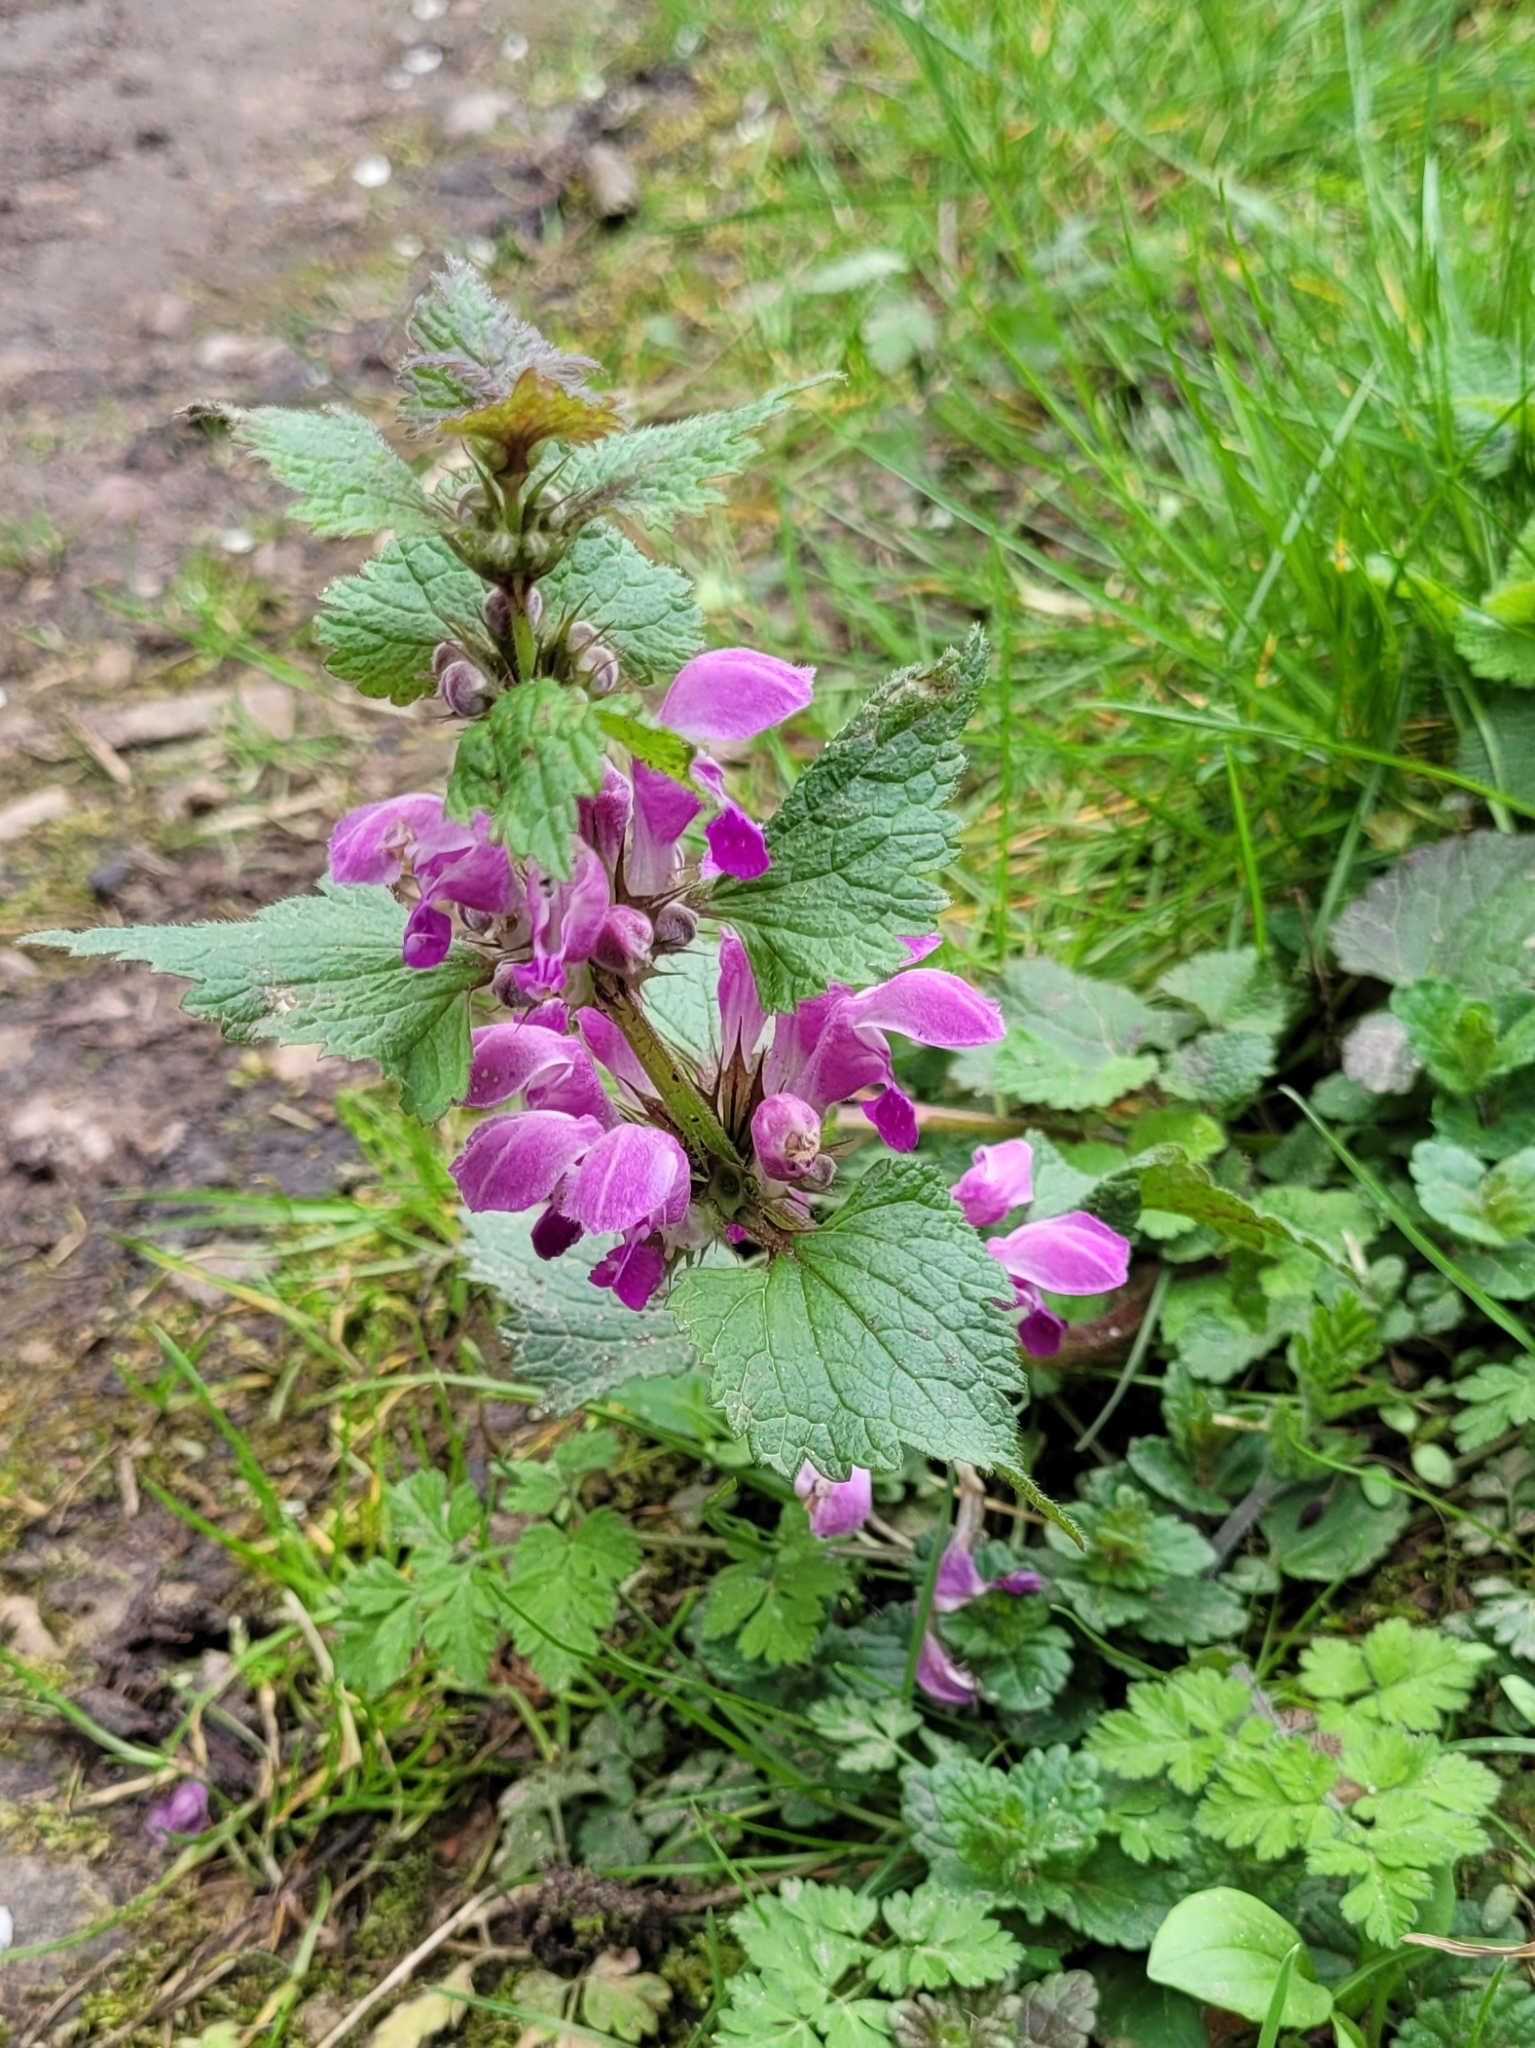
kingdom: Plantae
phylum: Tracheophyta
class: Magnoliopsida
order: Lamiales
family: Lamiaceae
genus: Lamium
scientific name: Lamium maculatum
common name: Spotted dead-nettle
